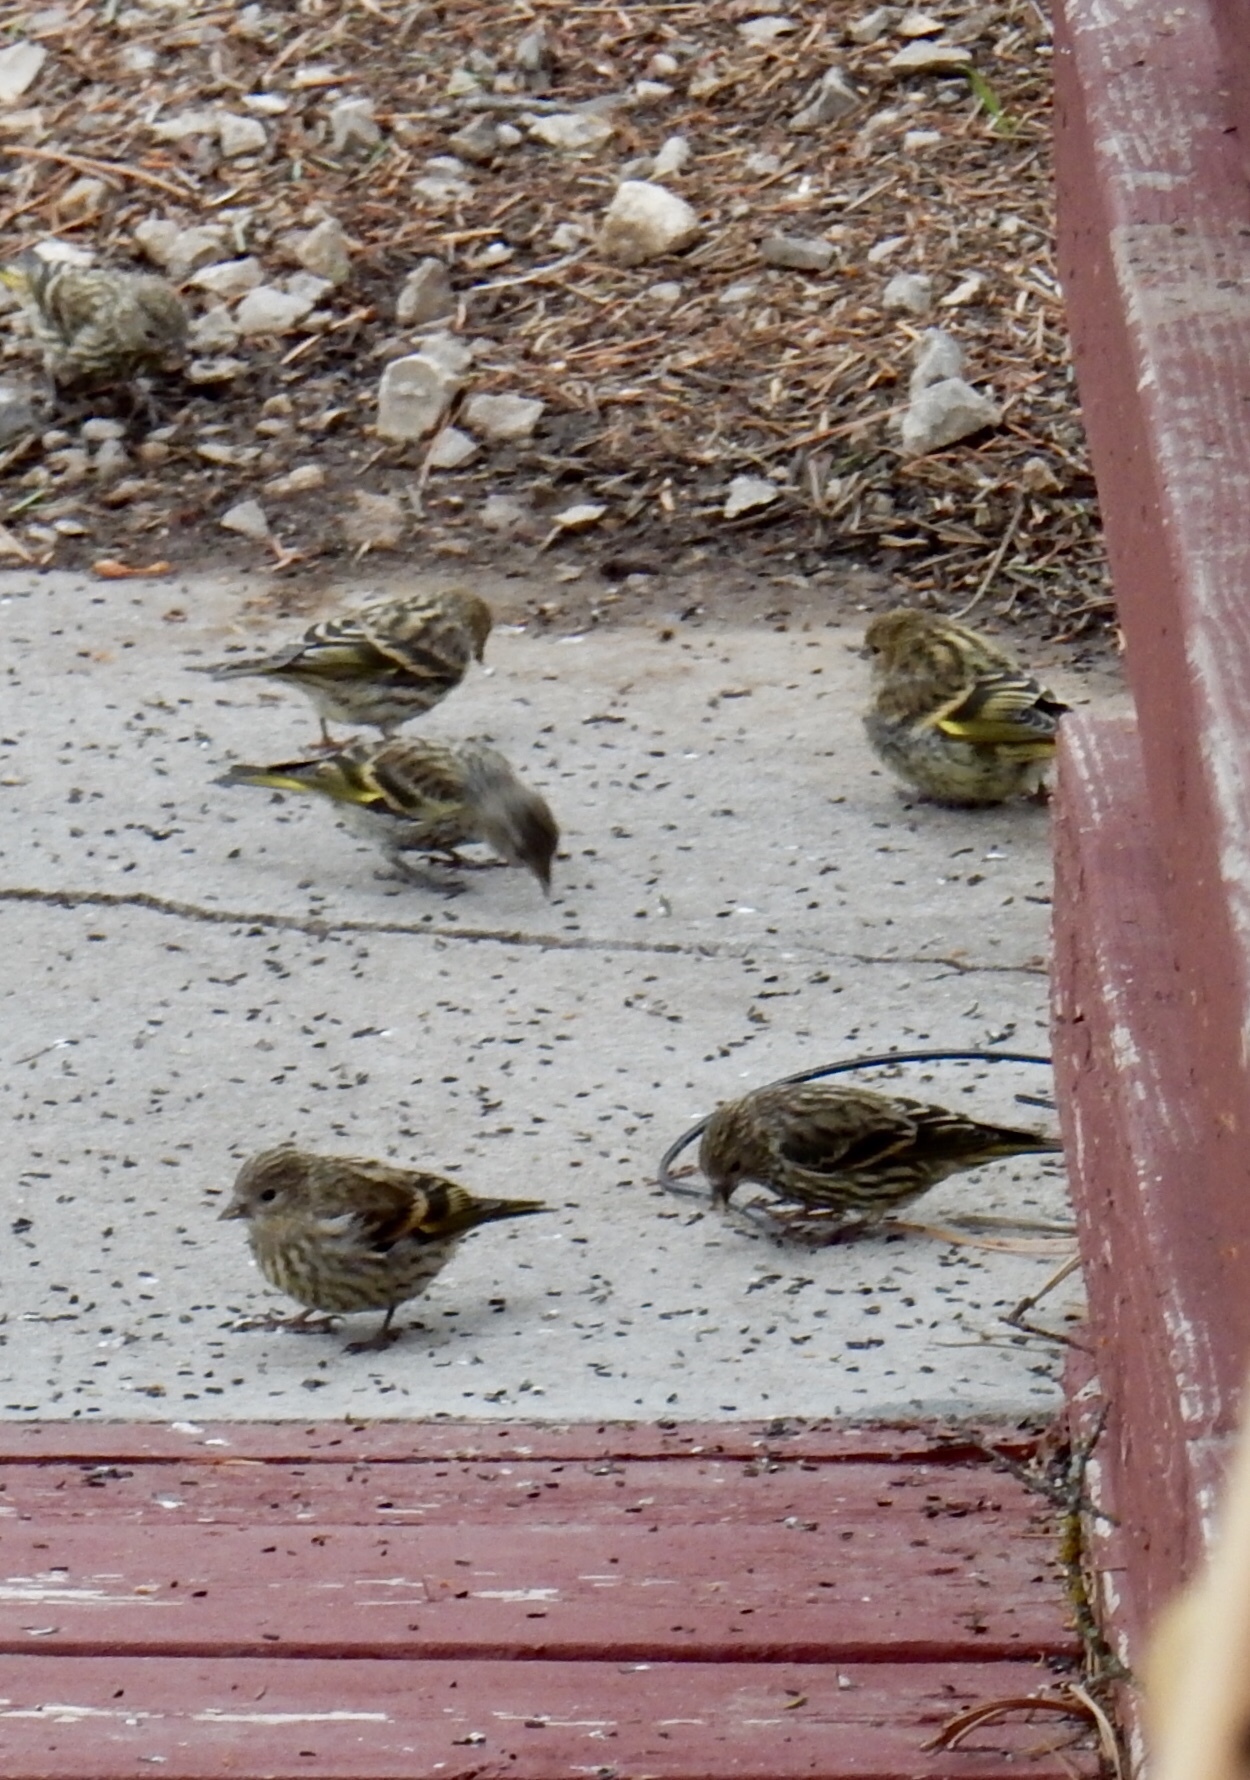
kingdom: Animalia
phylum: Chordata
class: Aves
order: Passeriformes
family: Fringillidae
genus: Spinus
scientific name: Spinus pinus
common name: Pine siskin
